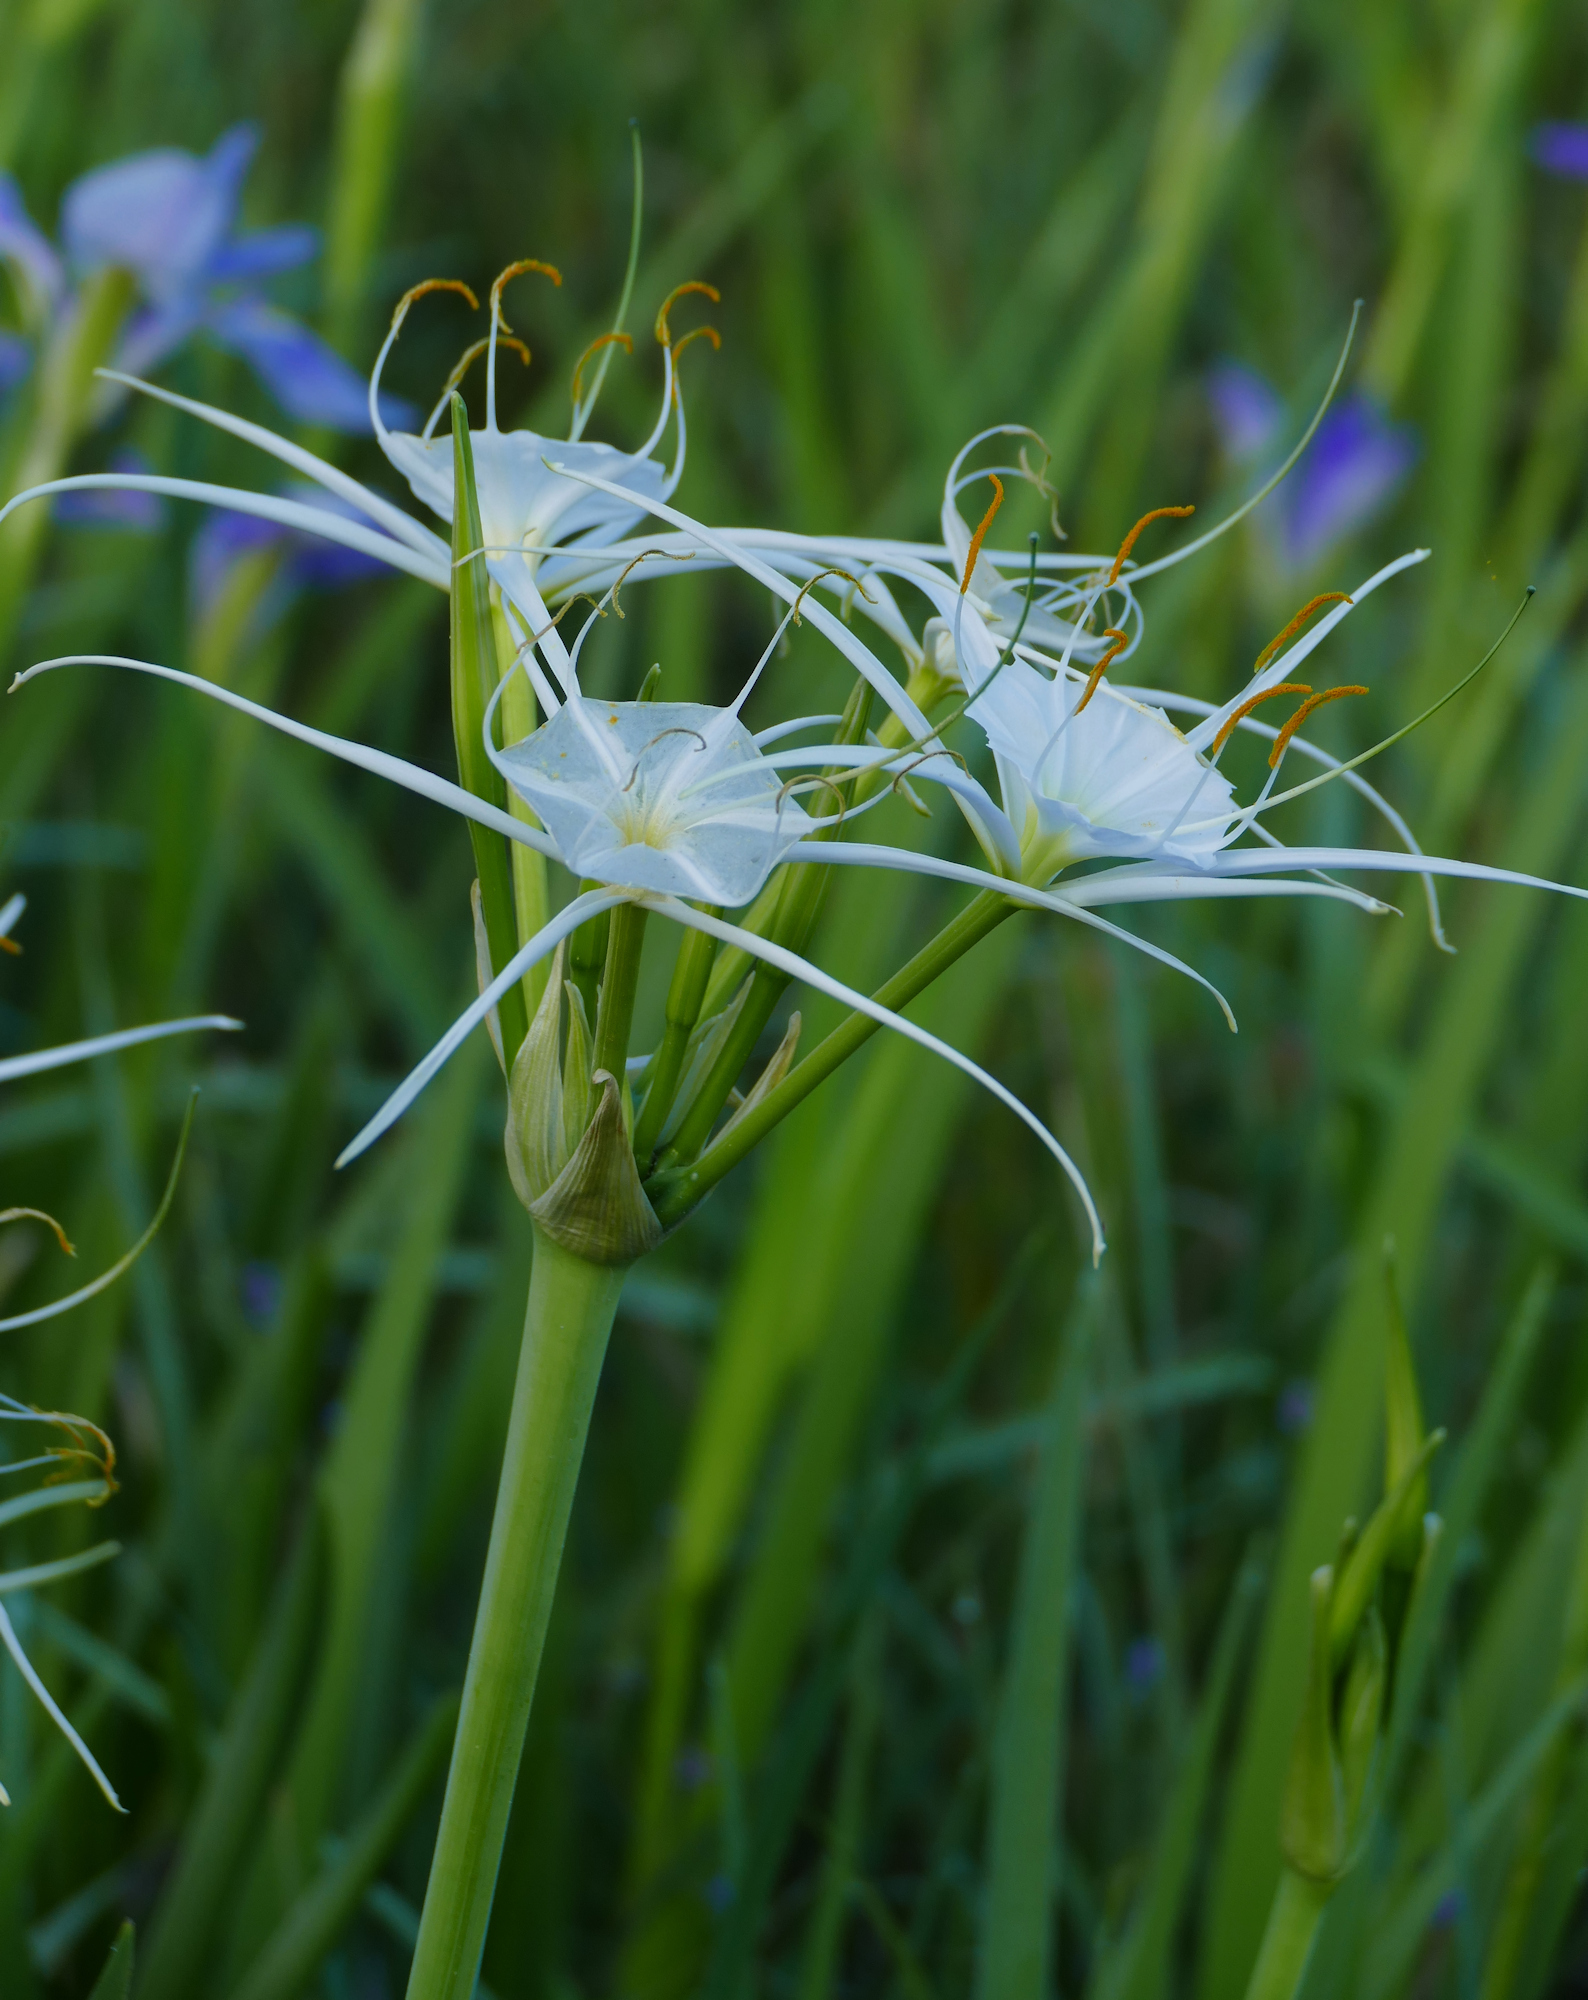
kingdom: Plantae
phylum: Tracheophyta
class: Liliopsida
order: Asparagales
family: Amaryllidaceae
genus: Hymenocallis
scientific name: Hymenocallis liriosme
